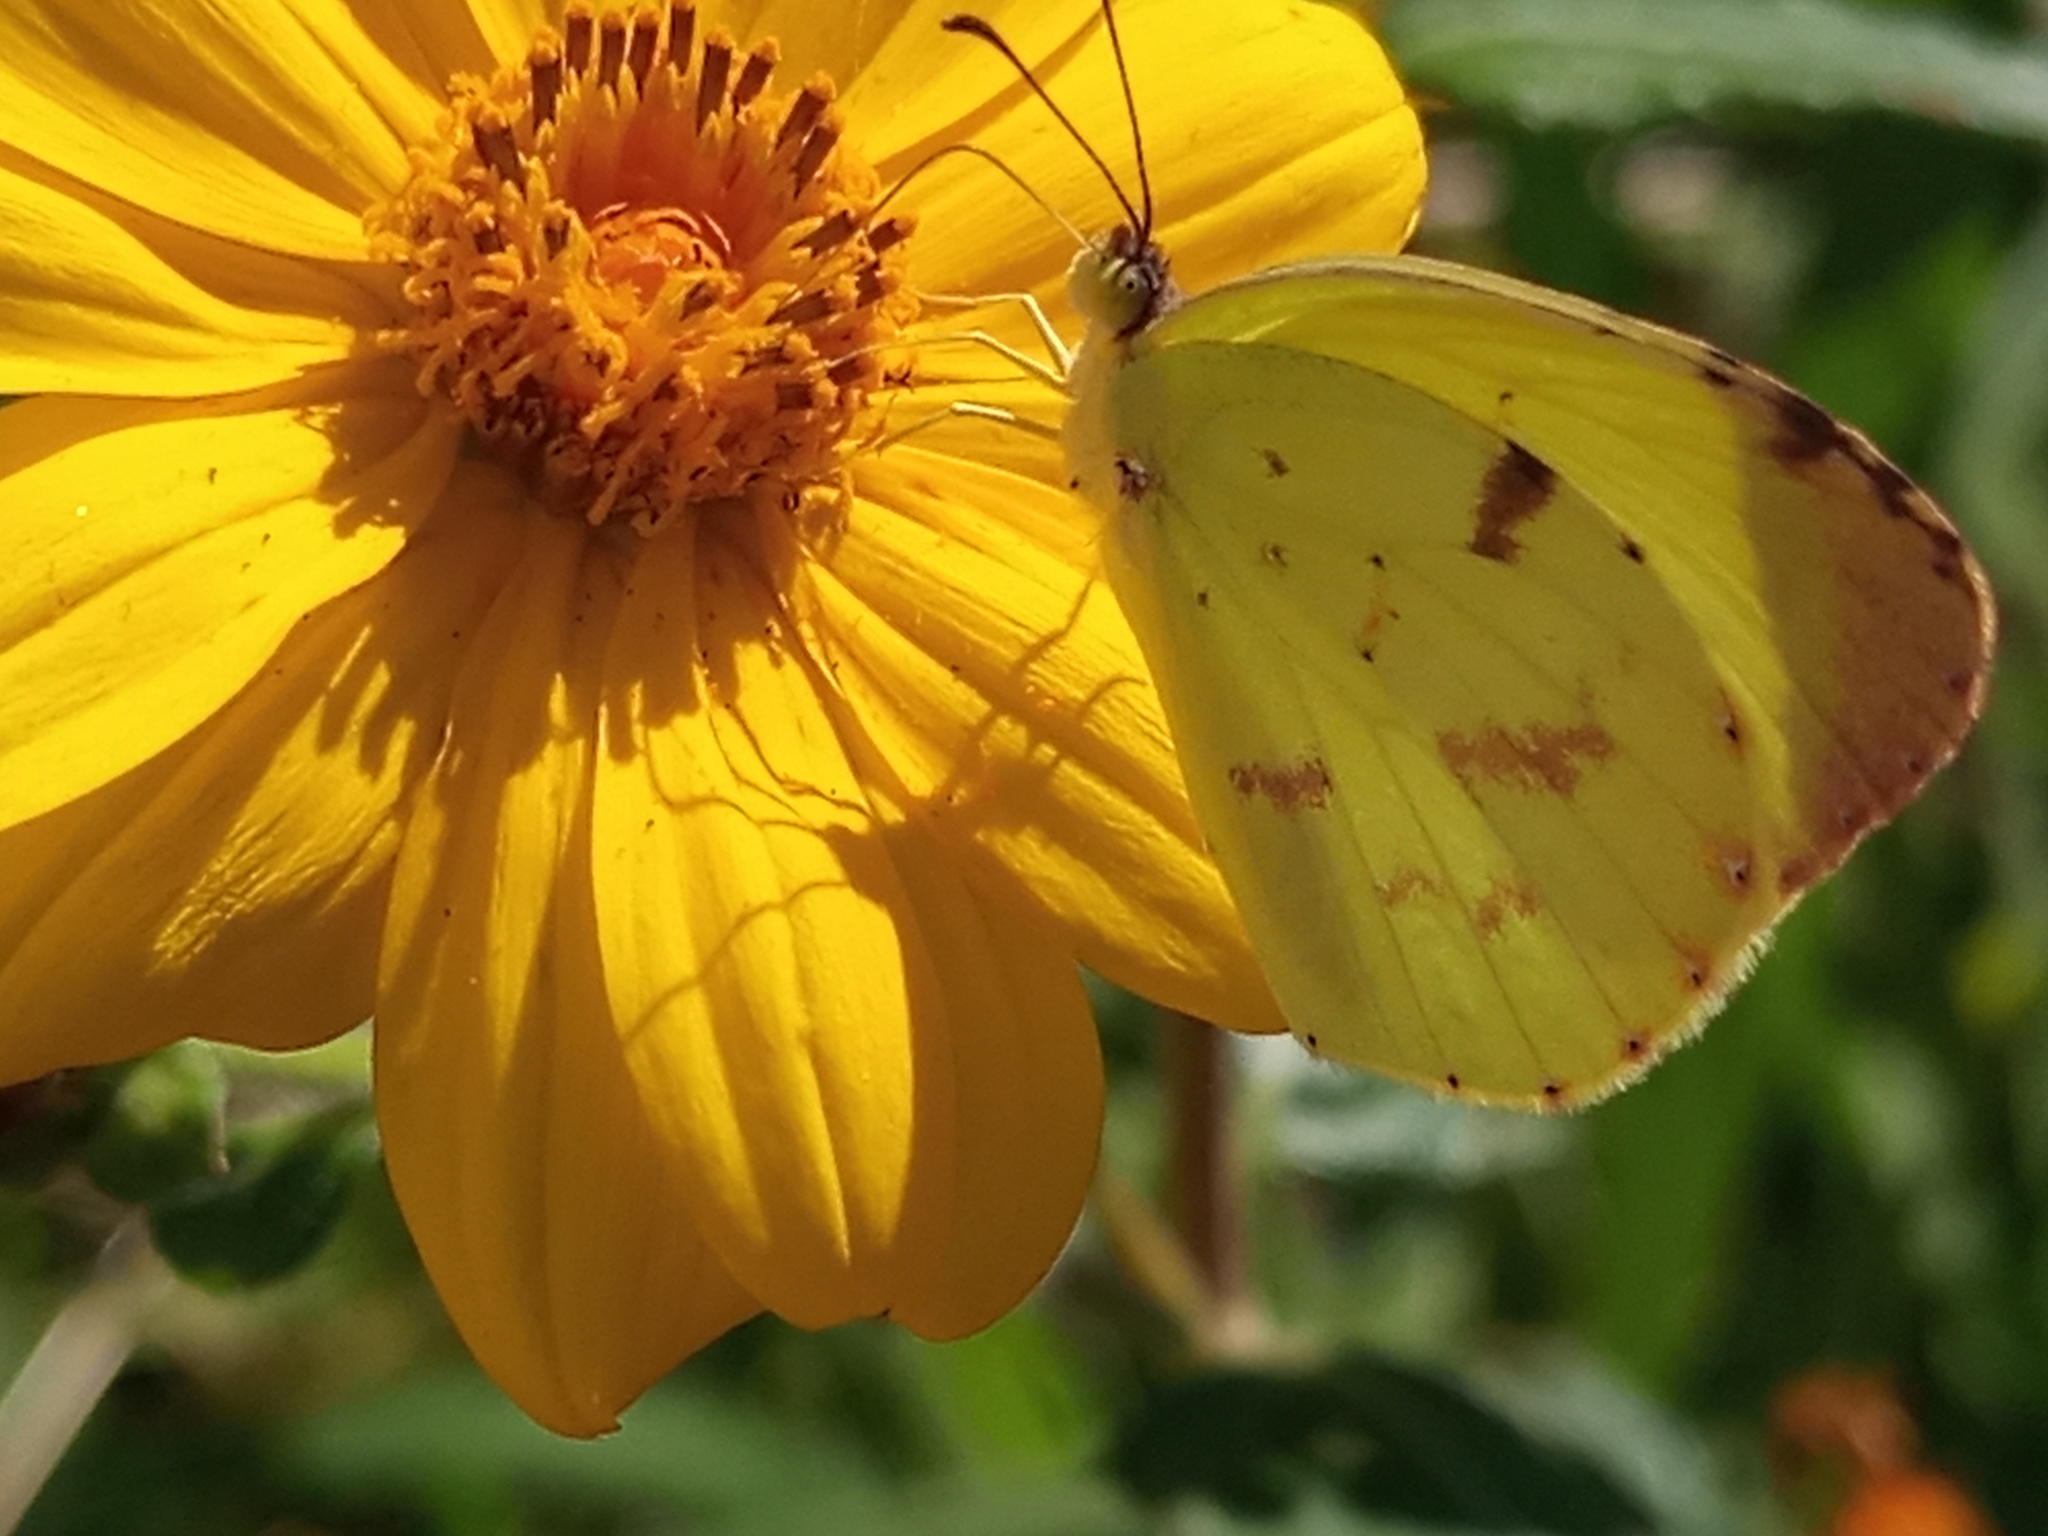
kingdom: Animalia
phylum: Arthropoda
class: Insecta
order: Lepidoptera
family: Pieridae
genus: Teriocolias
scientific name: Teriocolias
